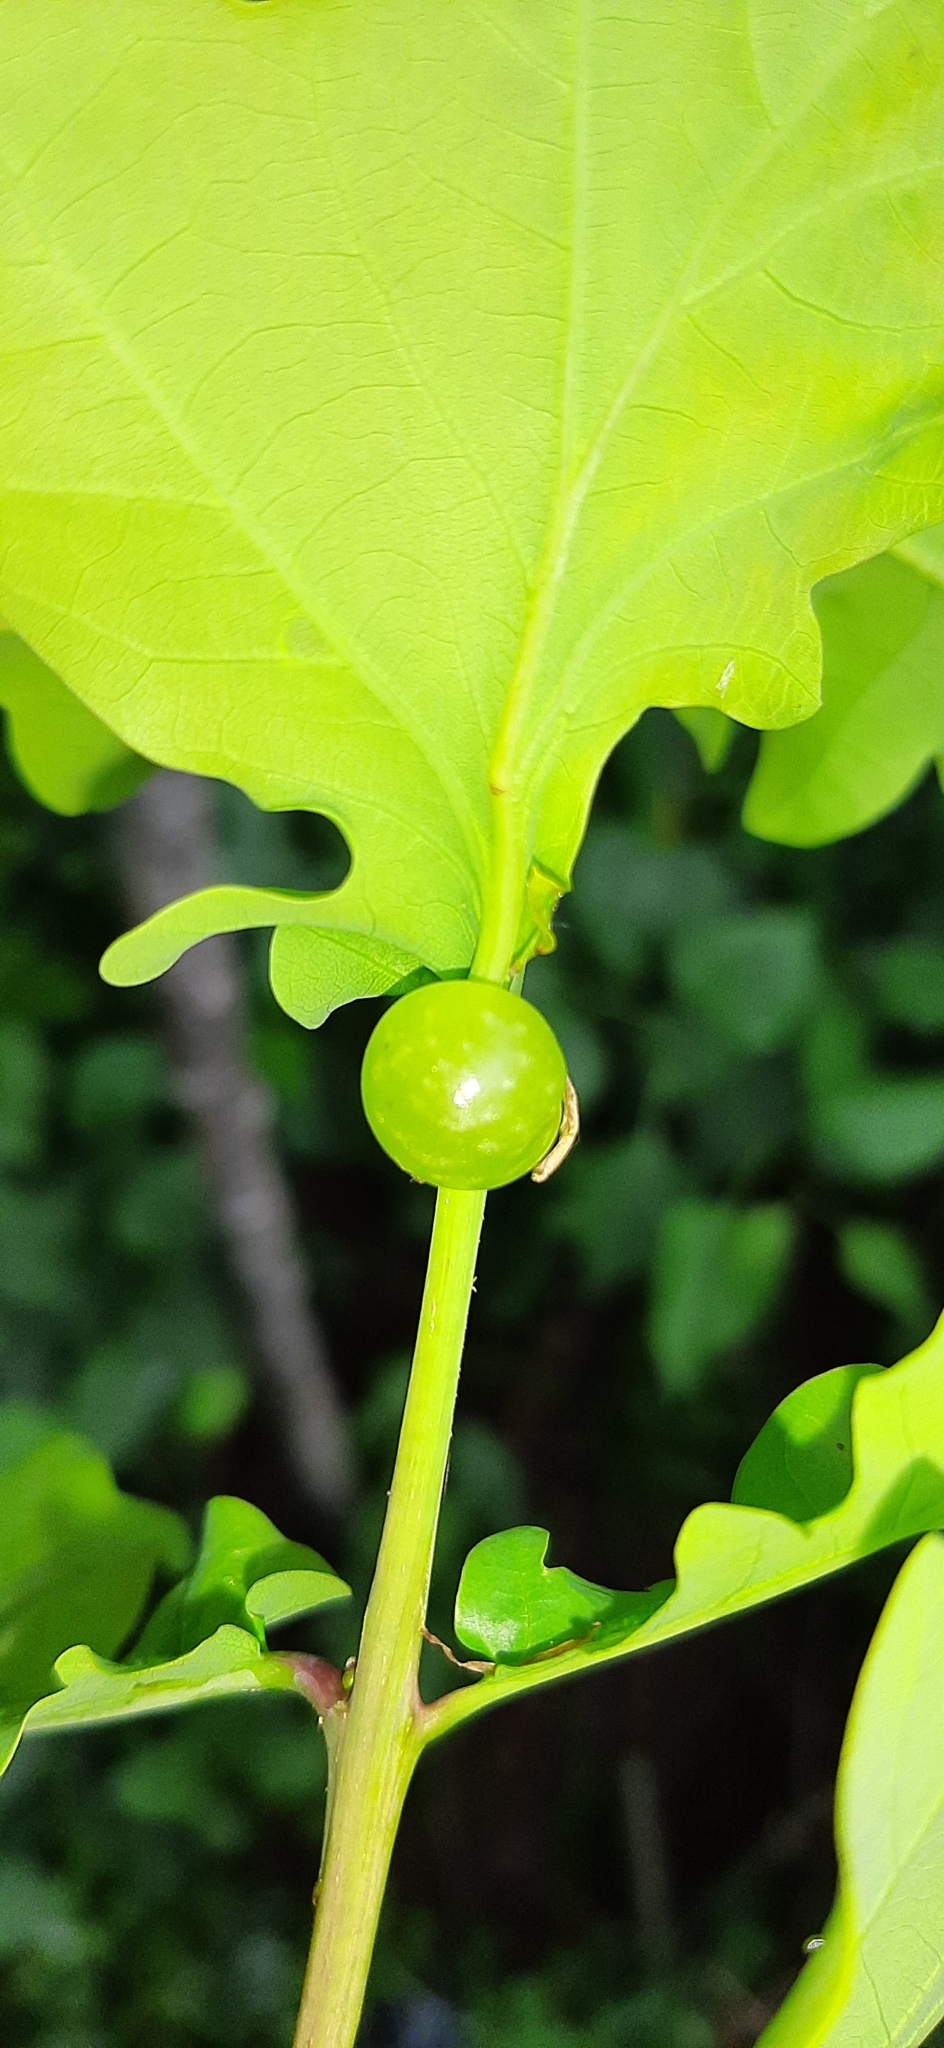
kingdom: Animalia
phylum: Arthropoda
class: Insecta
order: Hymenoptera
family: Cynipidae
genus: Neuroterus
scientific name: Neuroterus quercusbaccarum
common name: Common spangle gall
